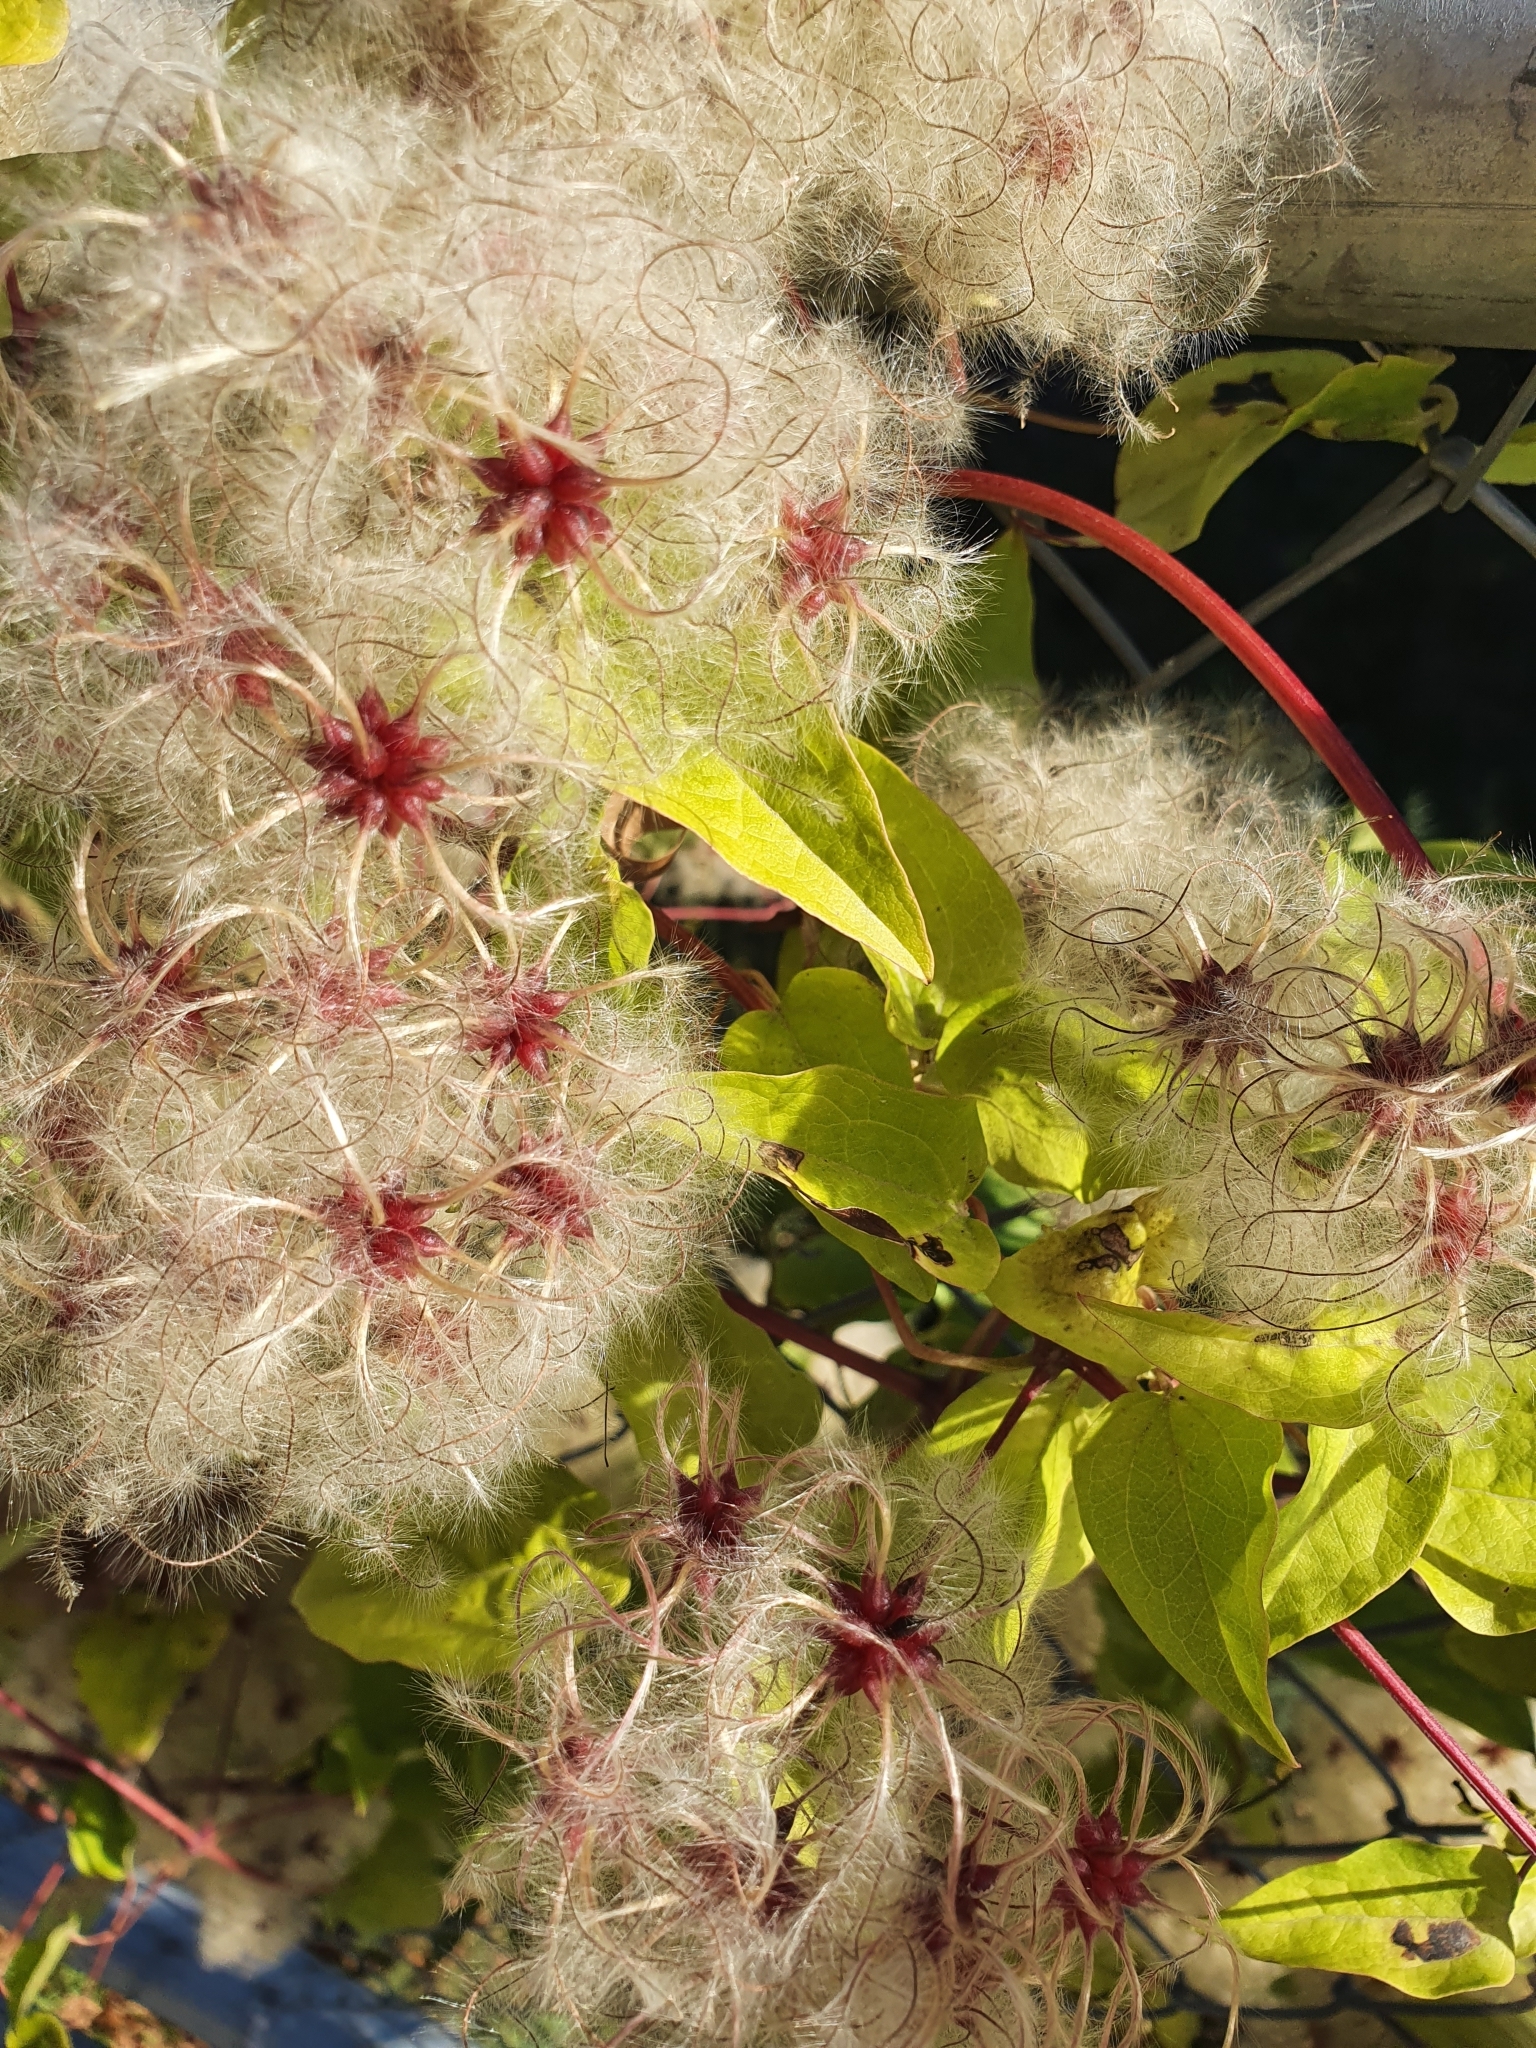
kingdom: Plantae
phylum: Tracheophyta
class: Magnoliopsida
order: Ranunculales
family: Ranunculaceae
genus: Clematis
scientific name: Clematis vitalba
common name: Evergreen clematis
